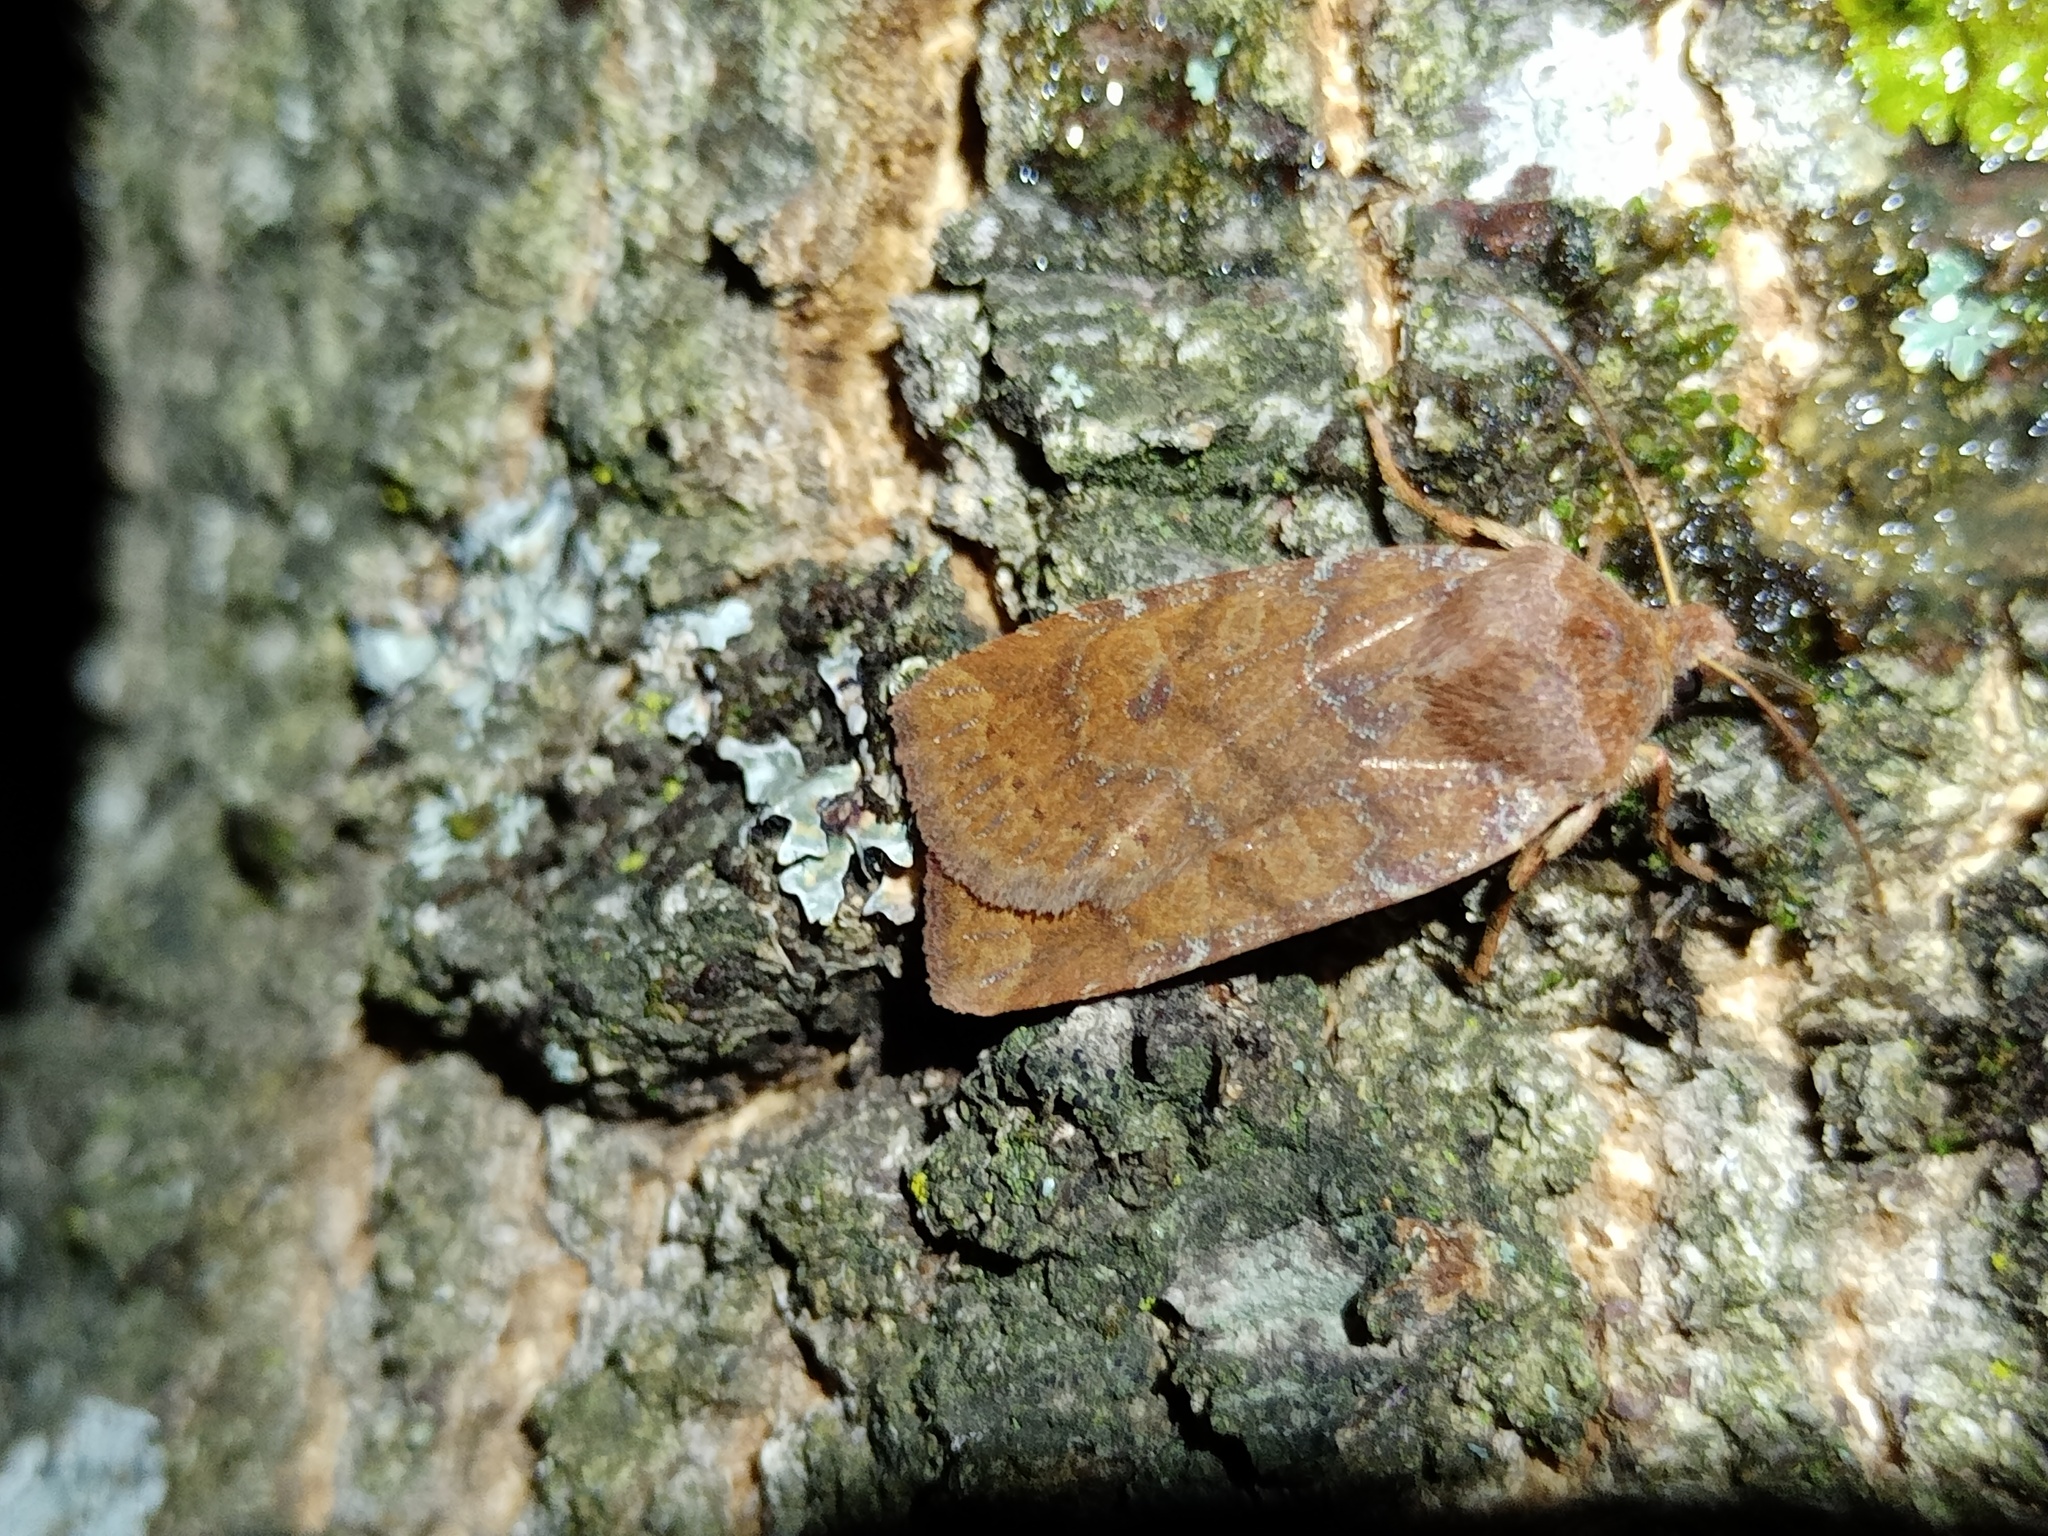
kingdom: Animalia
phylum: Arthropoda
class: Insecta
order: Lepidoptera
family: Noctuidae
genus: Conistra
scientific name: Conistra vaccinii
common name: Chestnut
